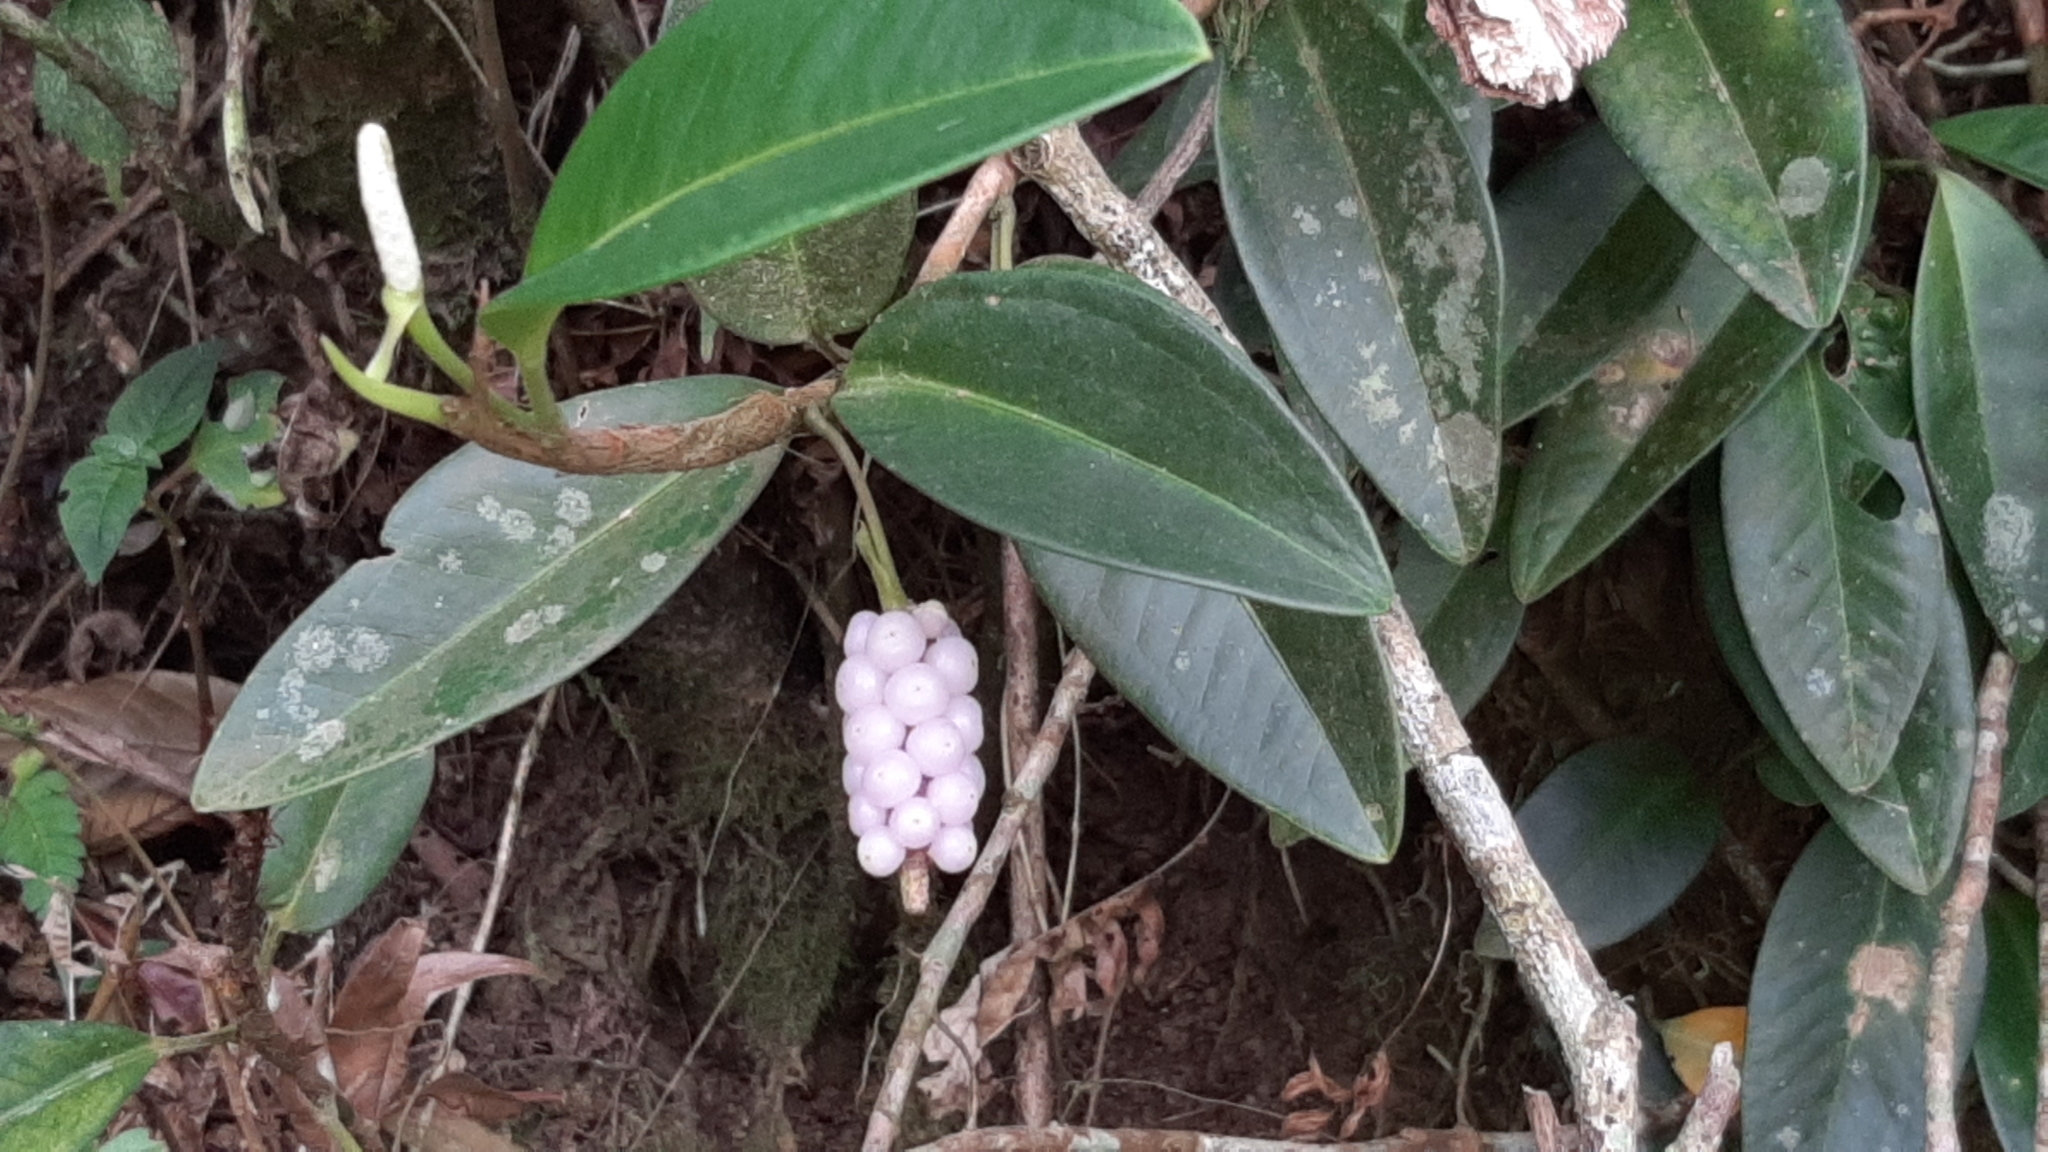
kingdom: Plantae
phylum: Tracheophyta
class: Liliopsida
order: Alismatales
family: Araceae
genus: Anthurium
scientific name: Anthurium scandens
